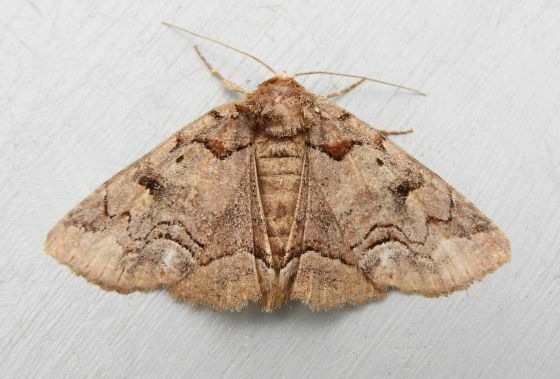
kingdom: Animalia
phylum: Arthropoda
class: Insecta
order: Lepidoptera
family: Erebidae
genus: Zale
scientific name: Zale helata
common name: Brown-spotted zale moth
